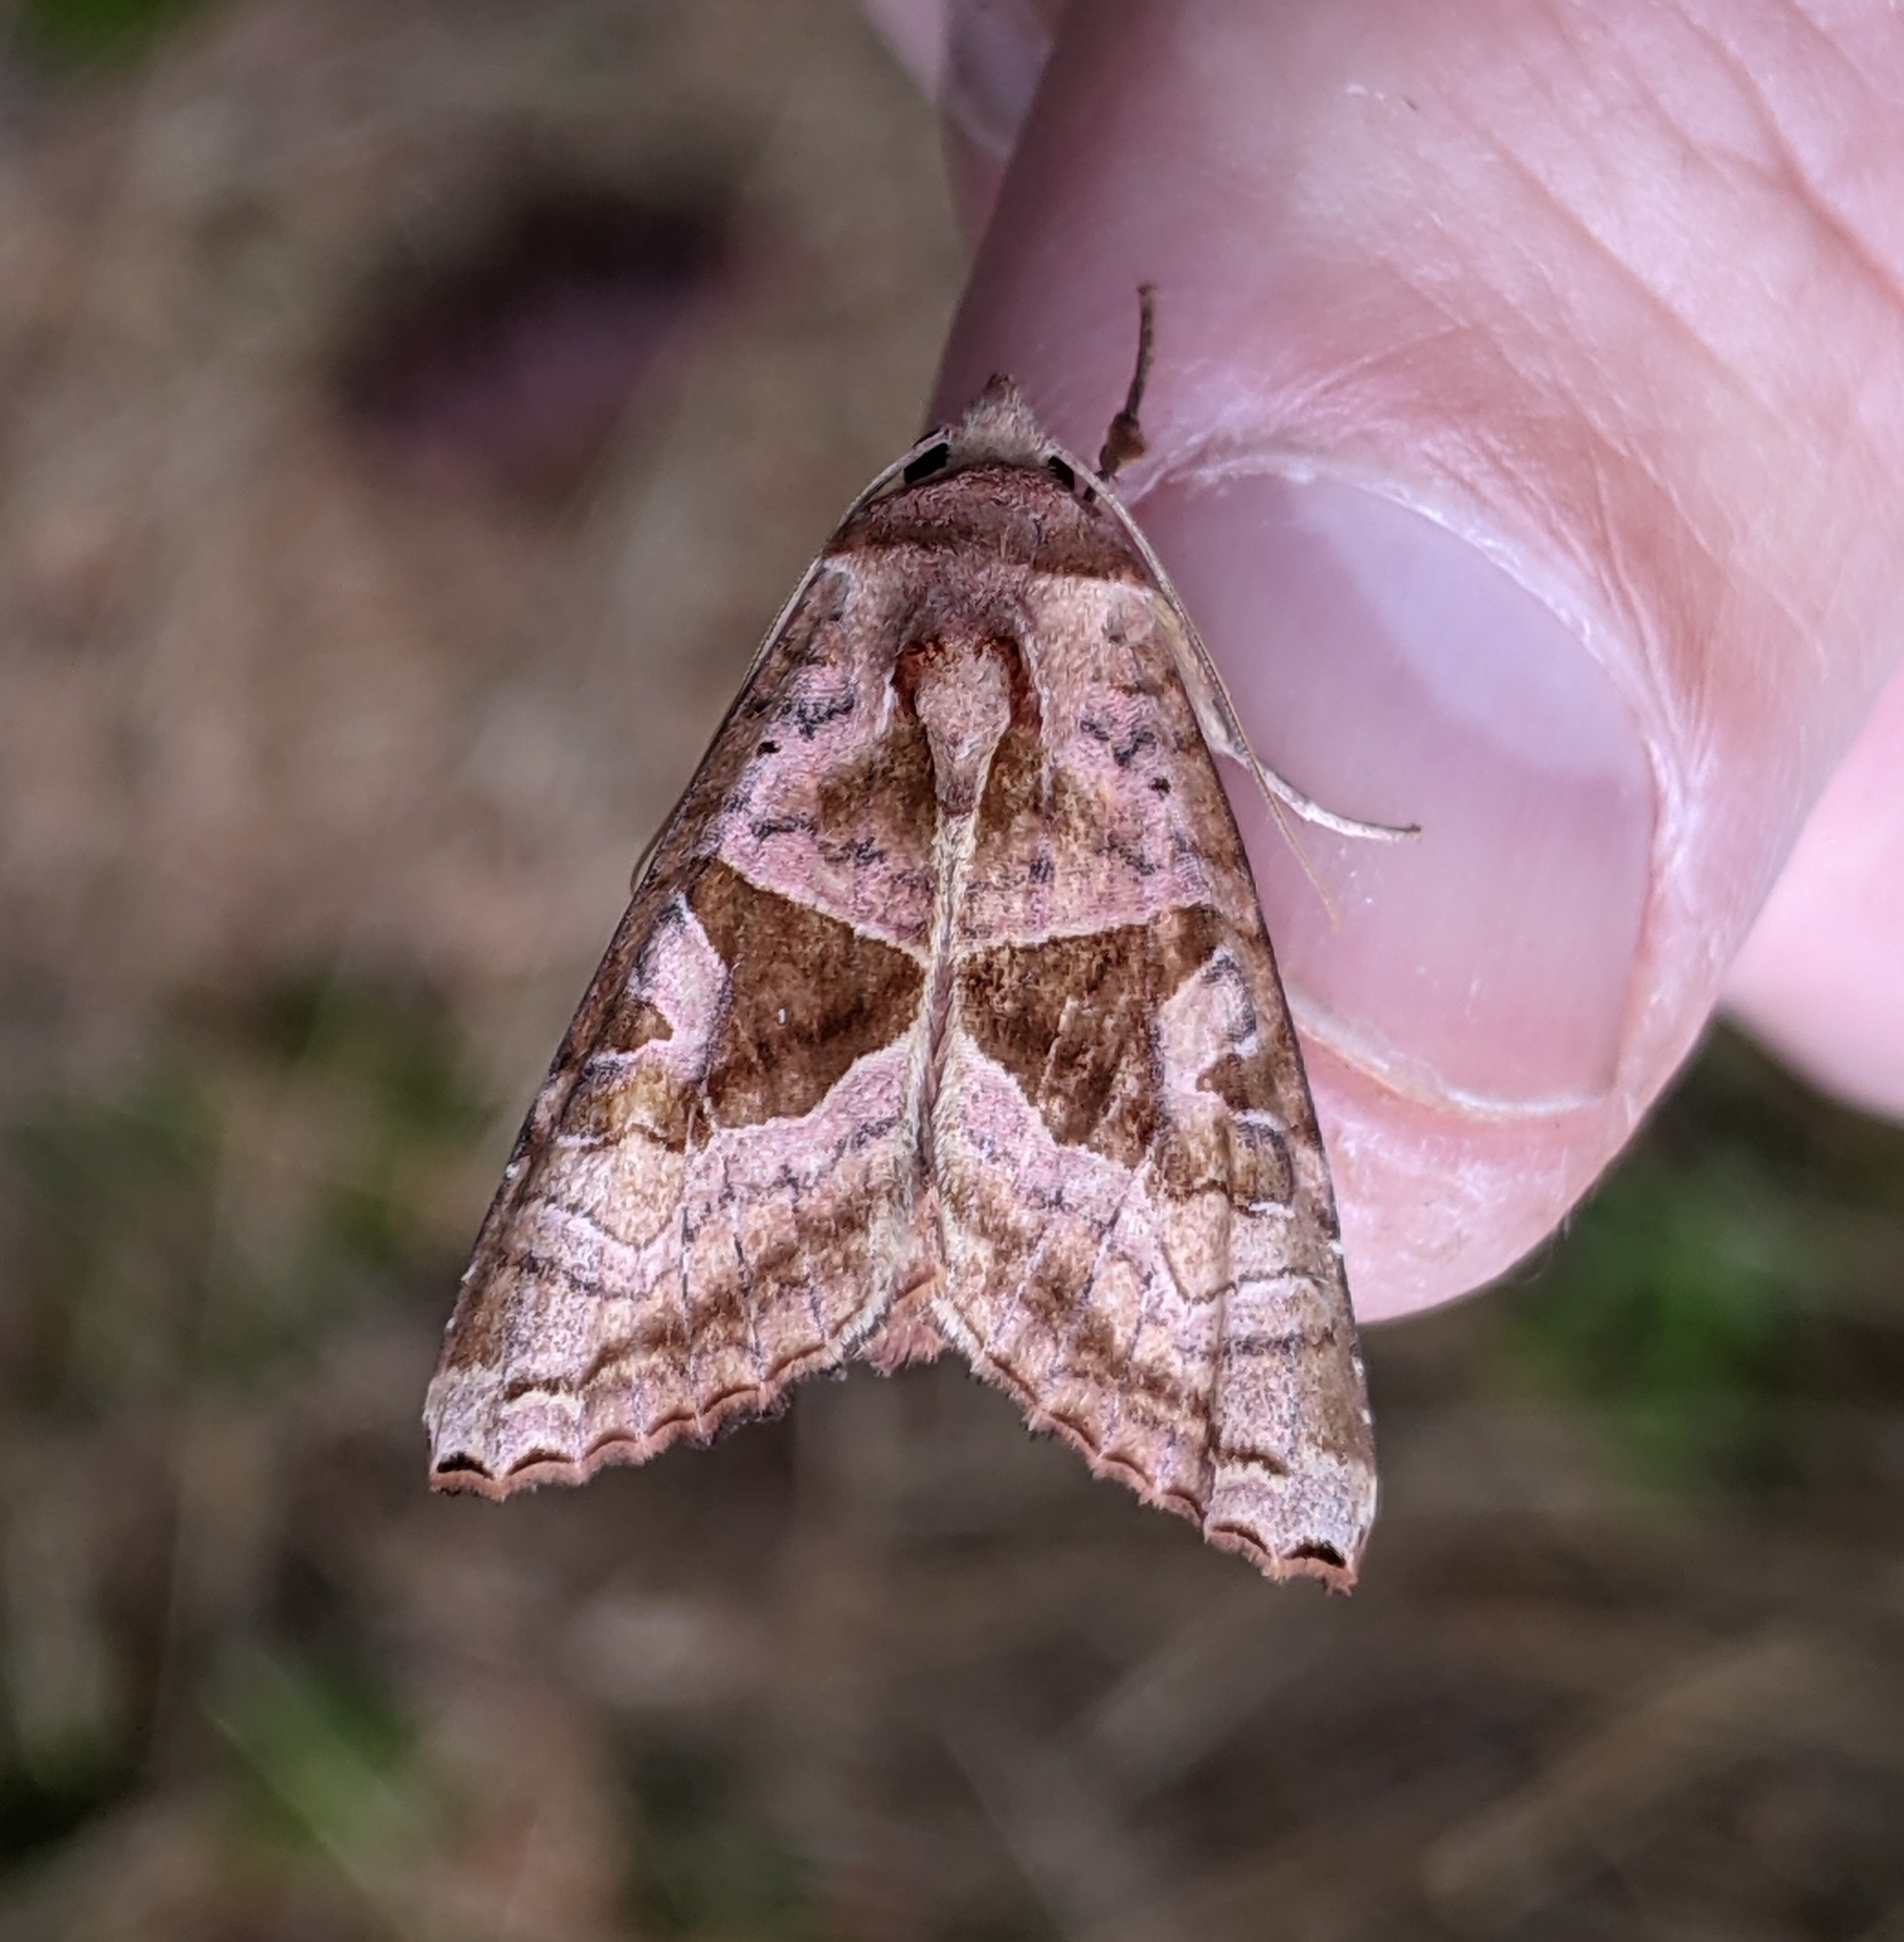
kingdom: Animalia
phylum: Arthropoda
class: Insecta
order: Lepidoptera
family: Noctuidae
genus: Phlogophora
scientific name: Phlogophora periculosa
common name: Brown angle shades
